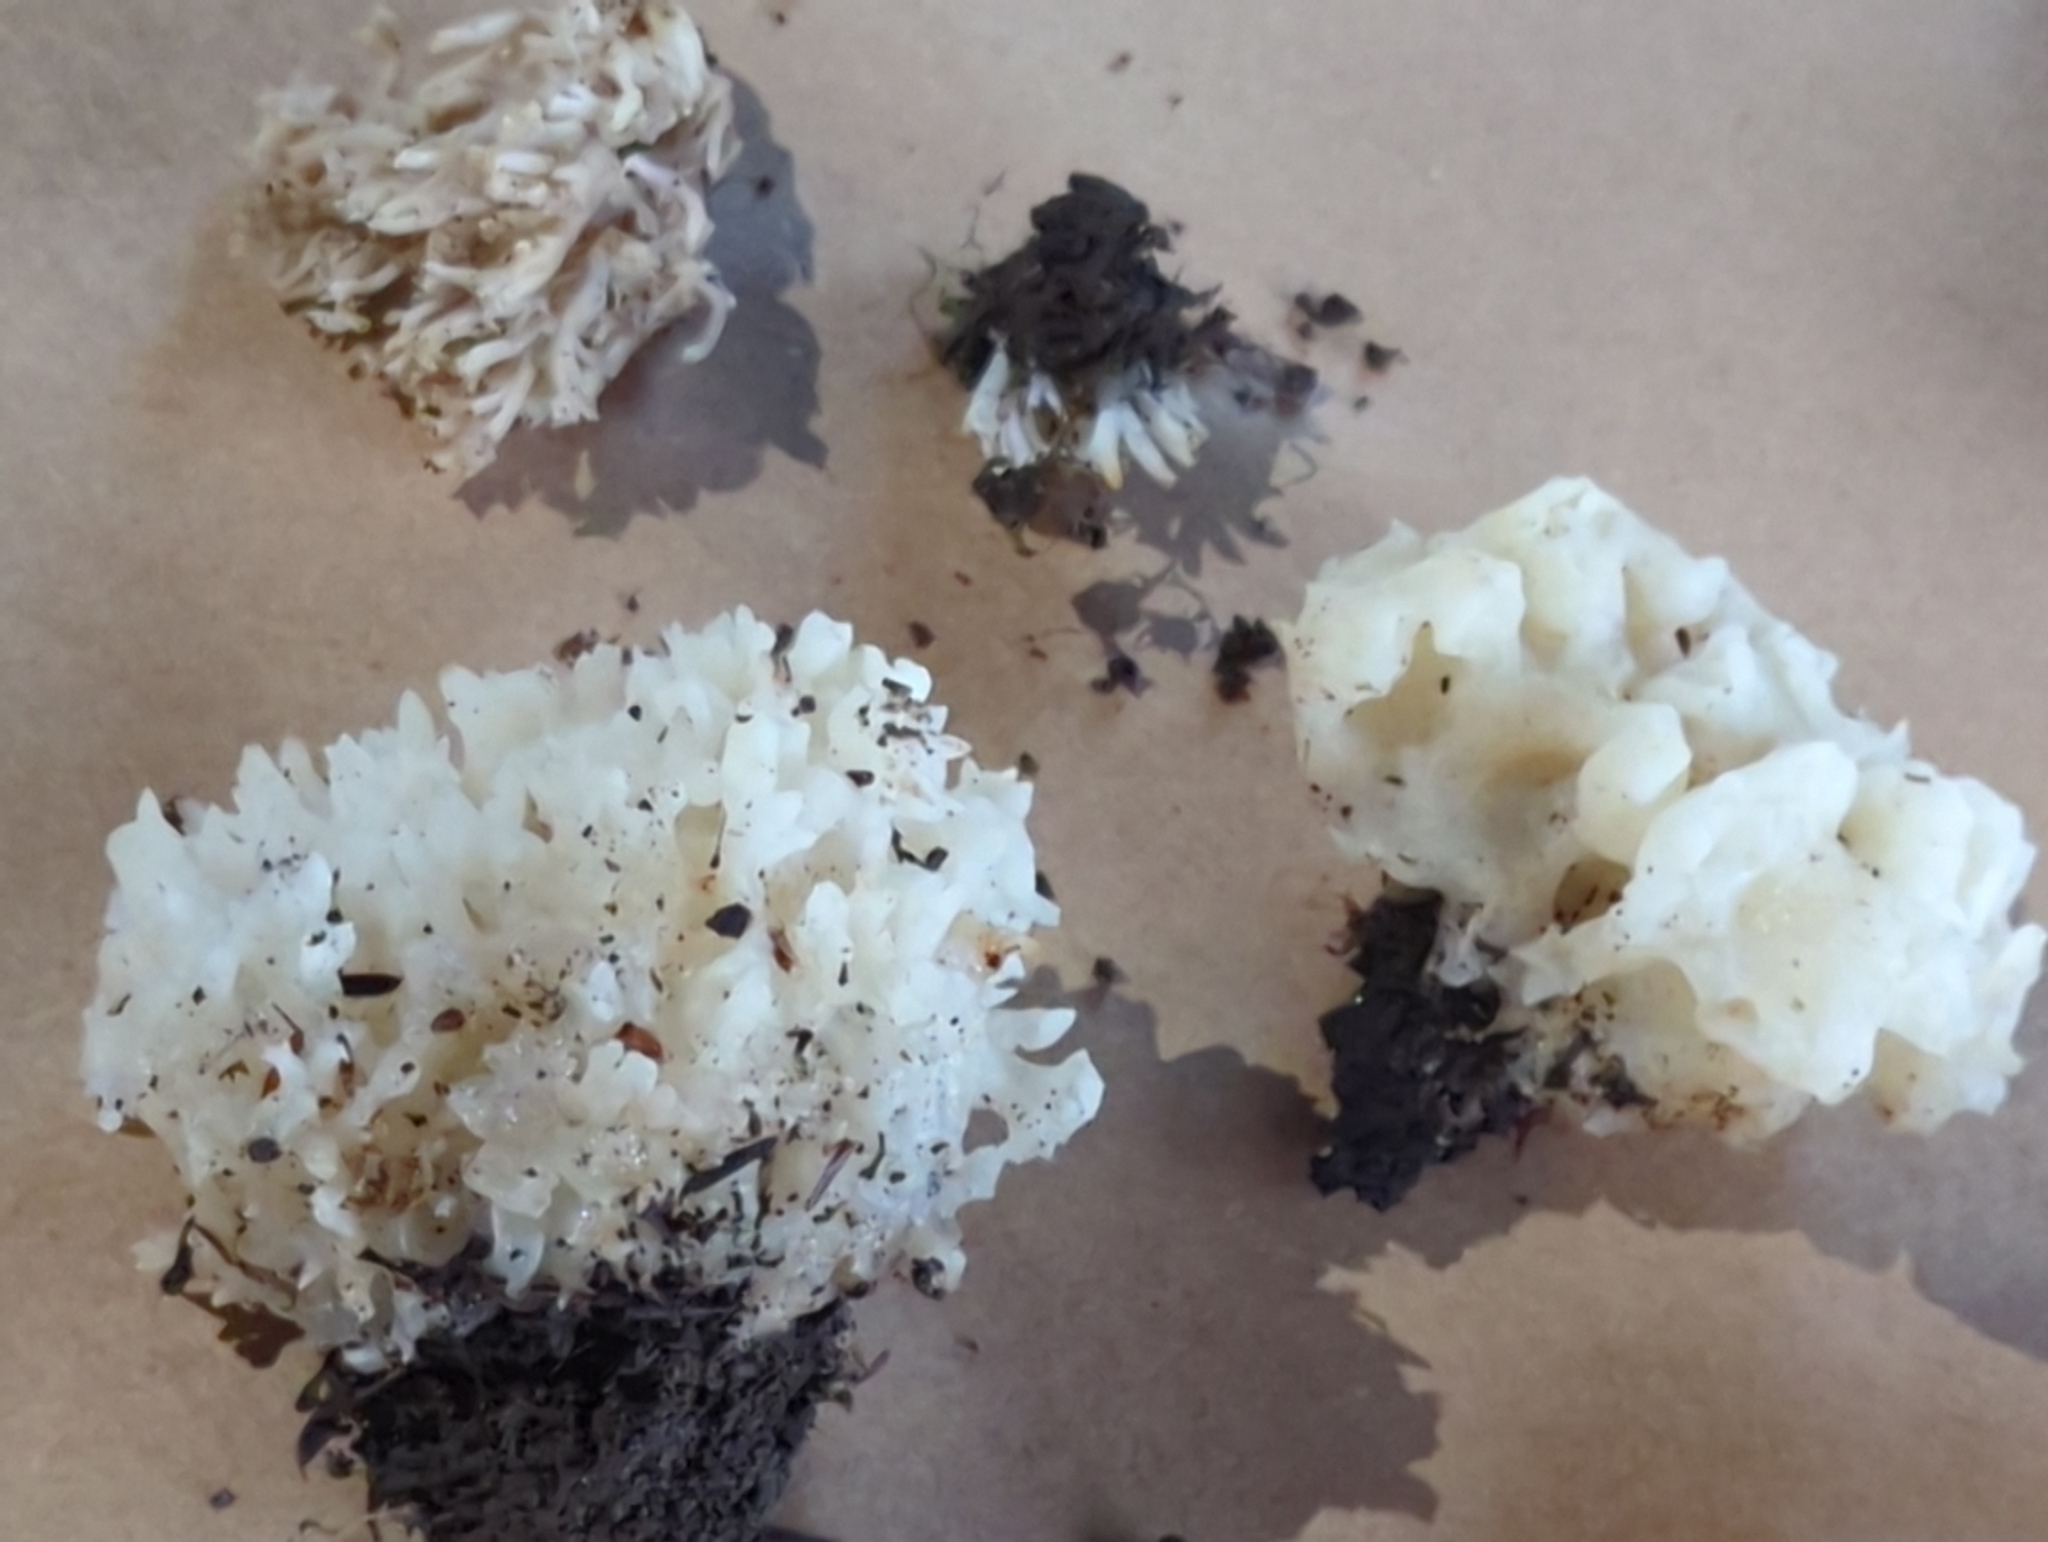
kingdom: Fungi
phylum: Basidiomycota
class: Agaricomycetes
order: Sebacinales
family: Sebacinaceae
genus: Sebacina
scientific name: Sebacina sparassoidea
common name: White coral jelly fungus
